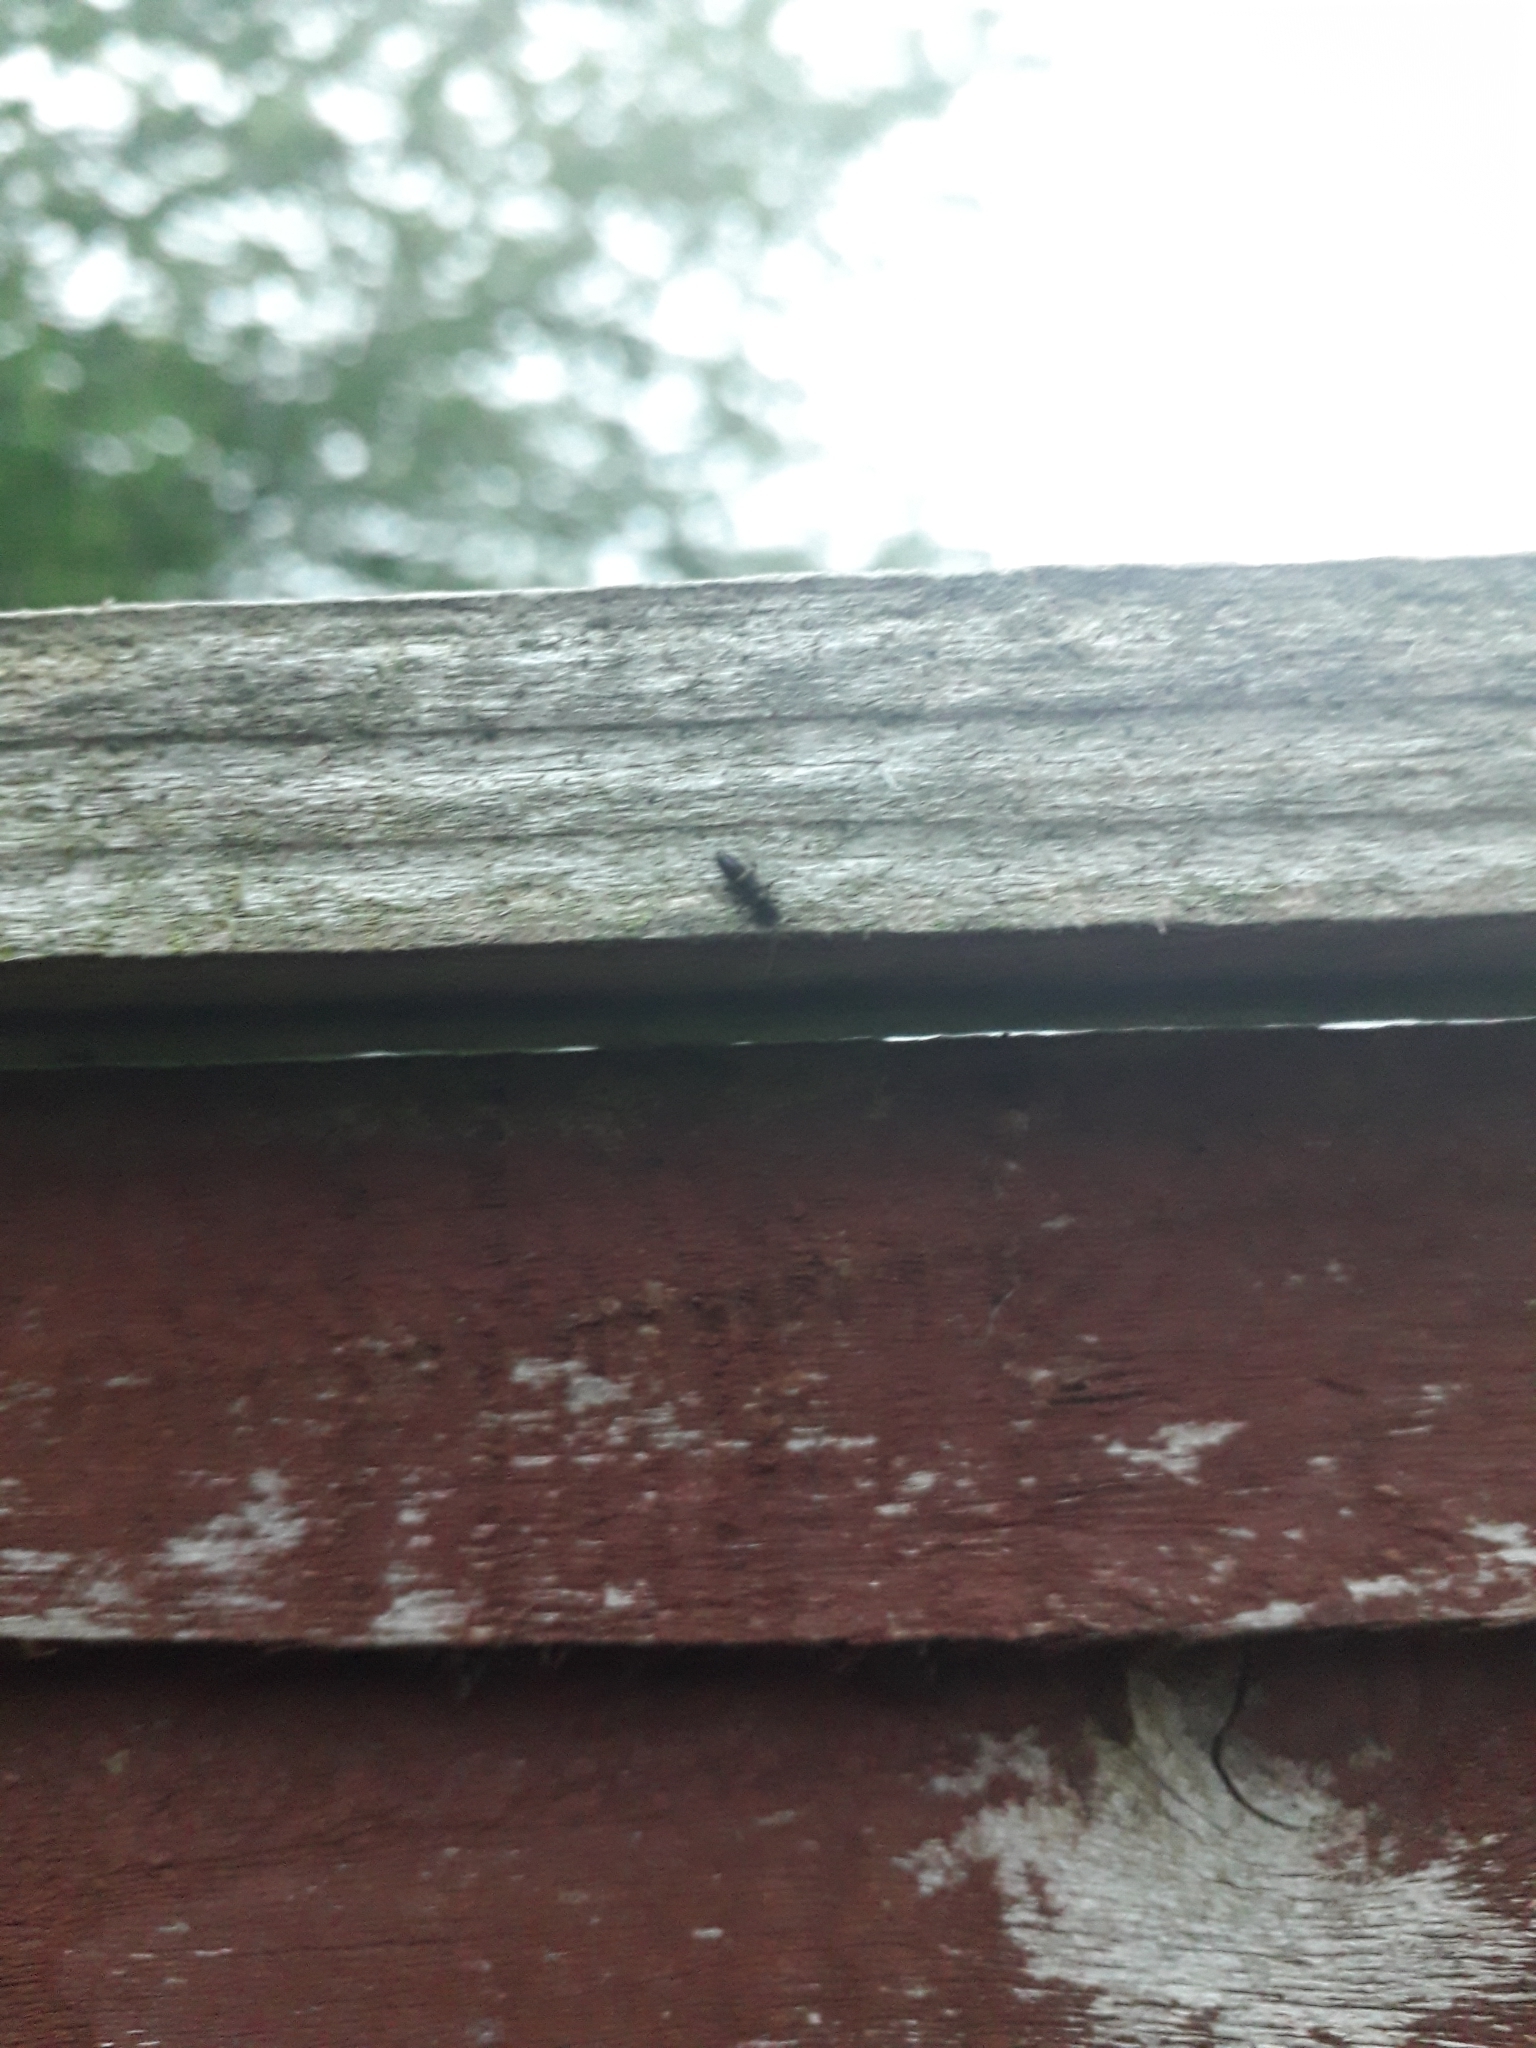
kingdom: Animalia
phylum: Arthropoda
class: Collembola
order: Entomobryomorpha
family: Orchesellidae
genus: Orchesella
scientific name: Orchesella cincta
